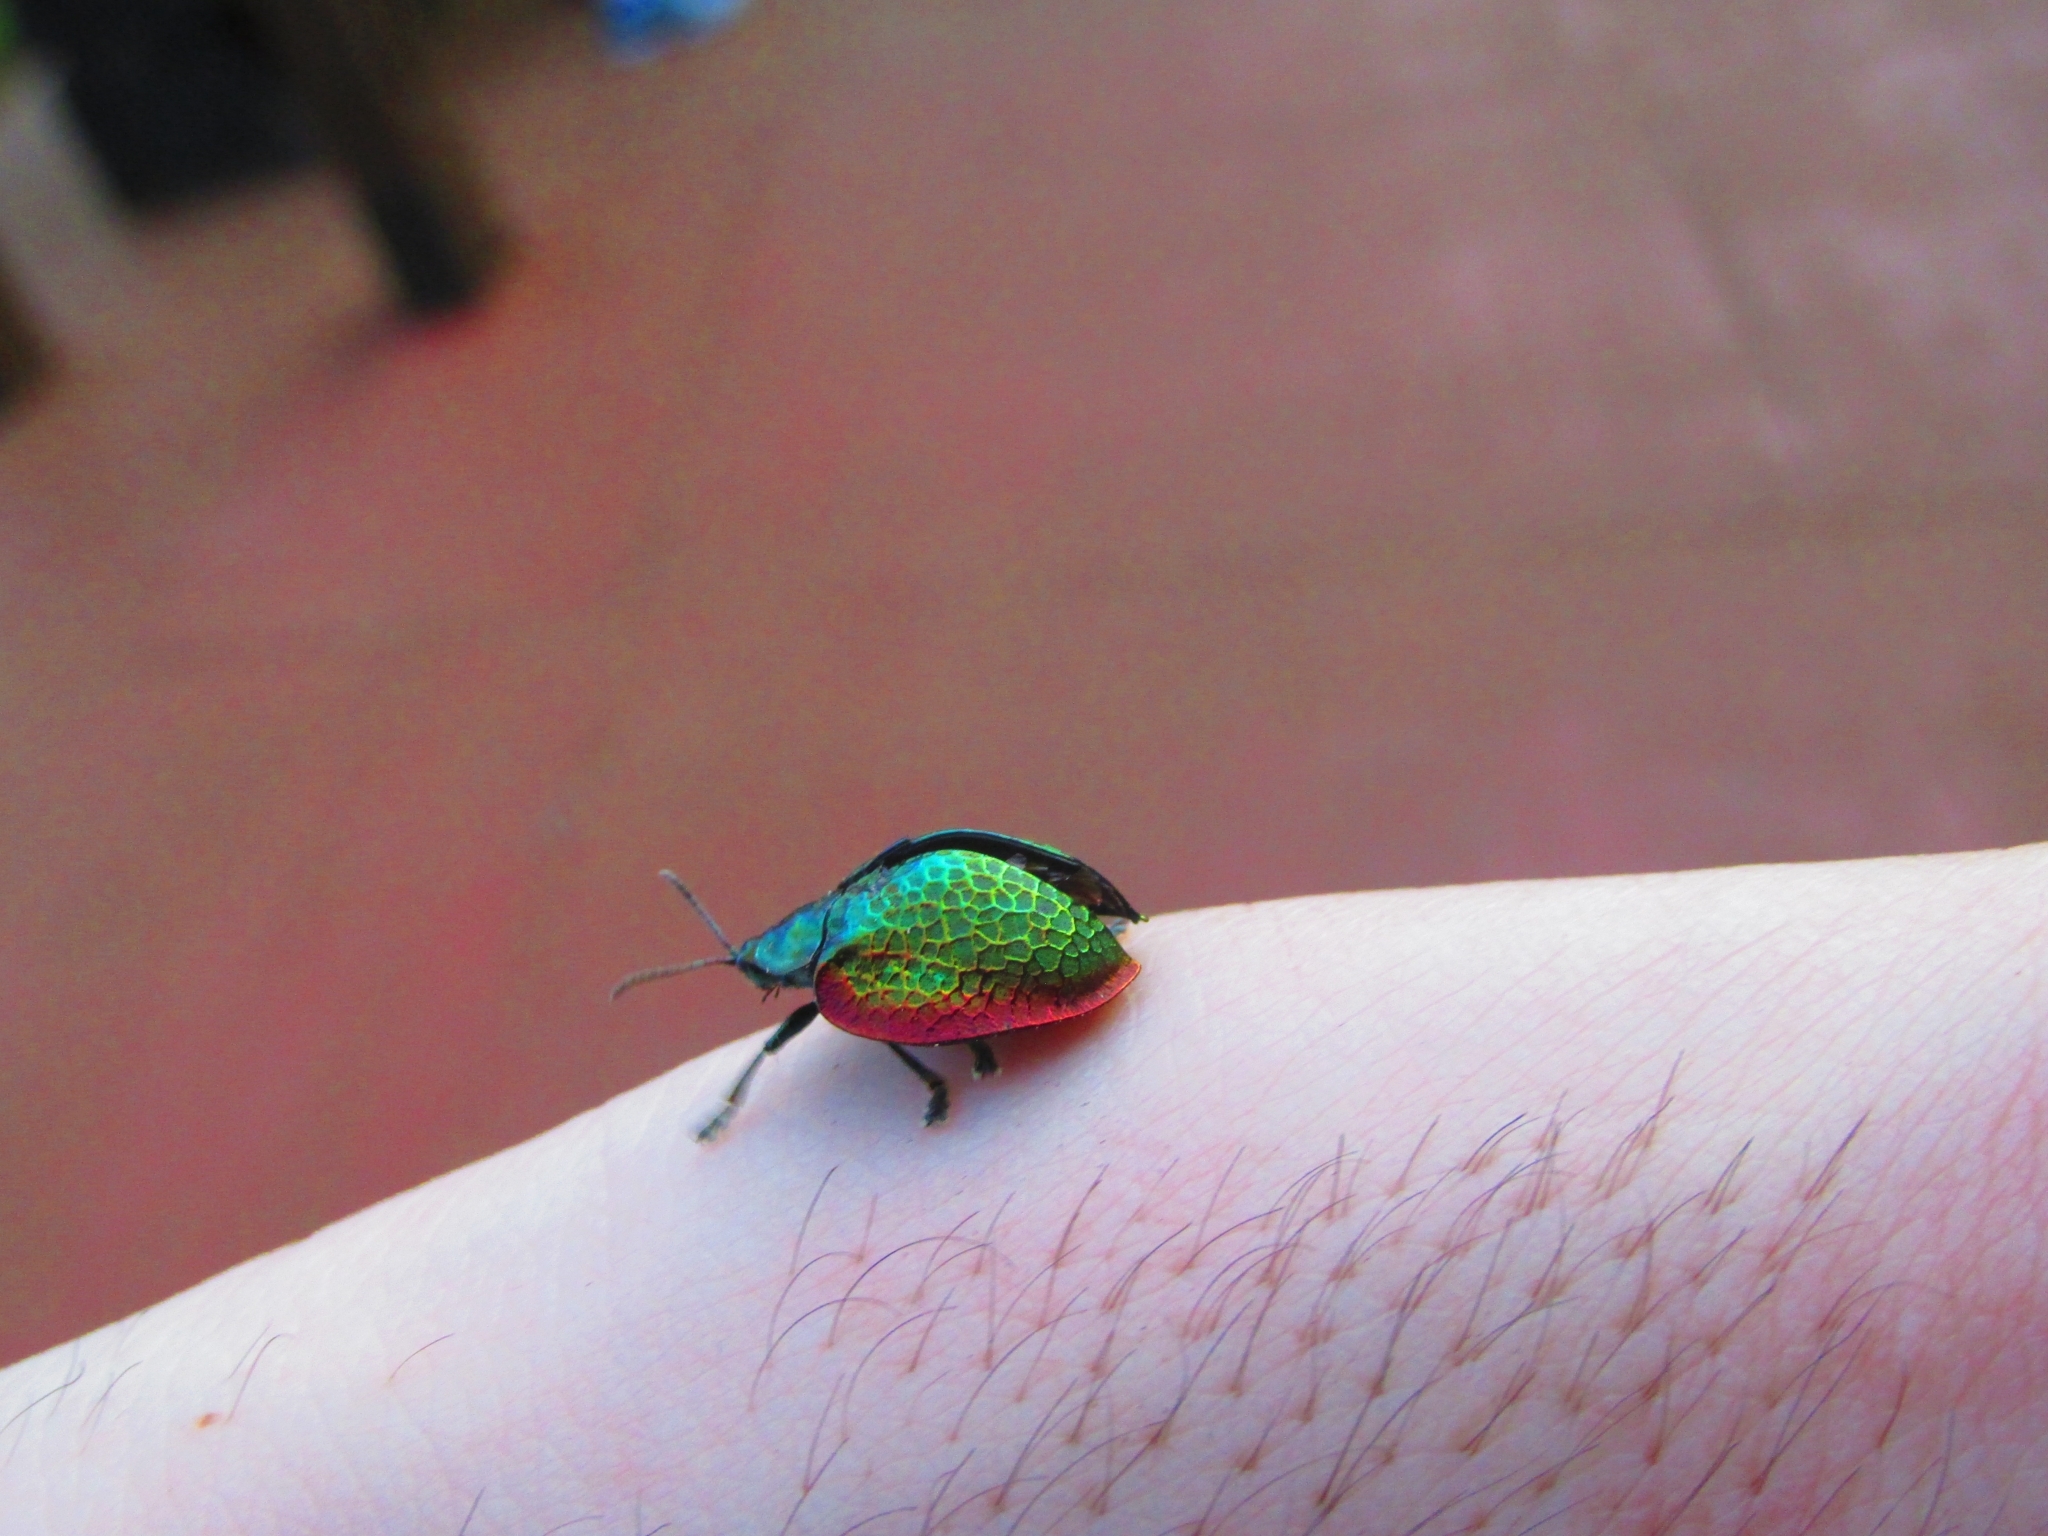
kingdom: Animalia
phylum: Arthropoda
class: Insecta
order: Coleoptera
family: Chrysomelidae
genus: Stolas
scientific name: Stolas festiva
